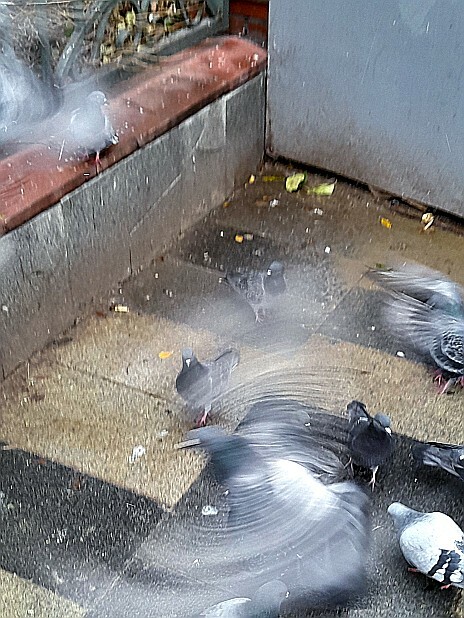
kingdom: Animalia
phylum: Chordata
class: Aves
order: Columbiformes
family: Columbidae
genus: Columba
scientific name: Columba livia
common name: Rock pigeon
